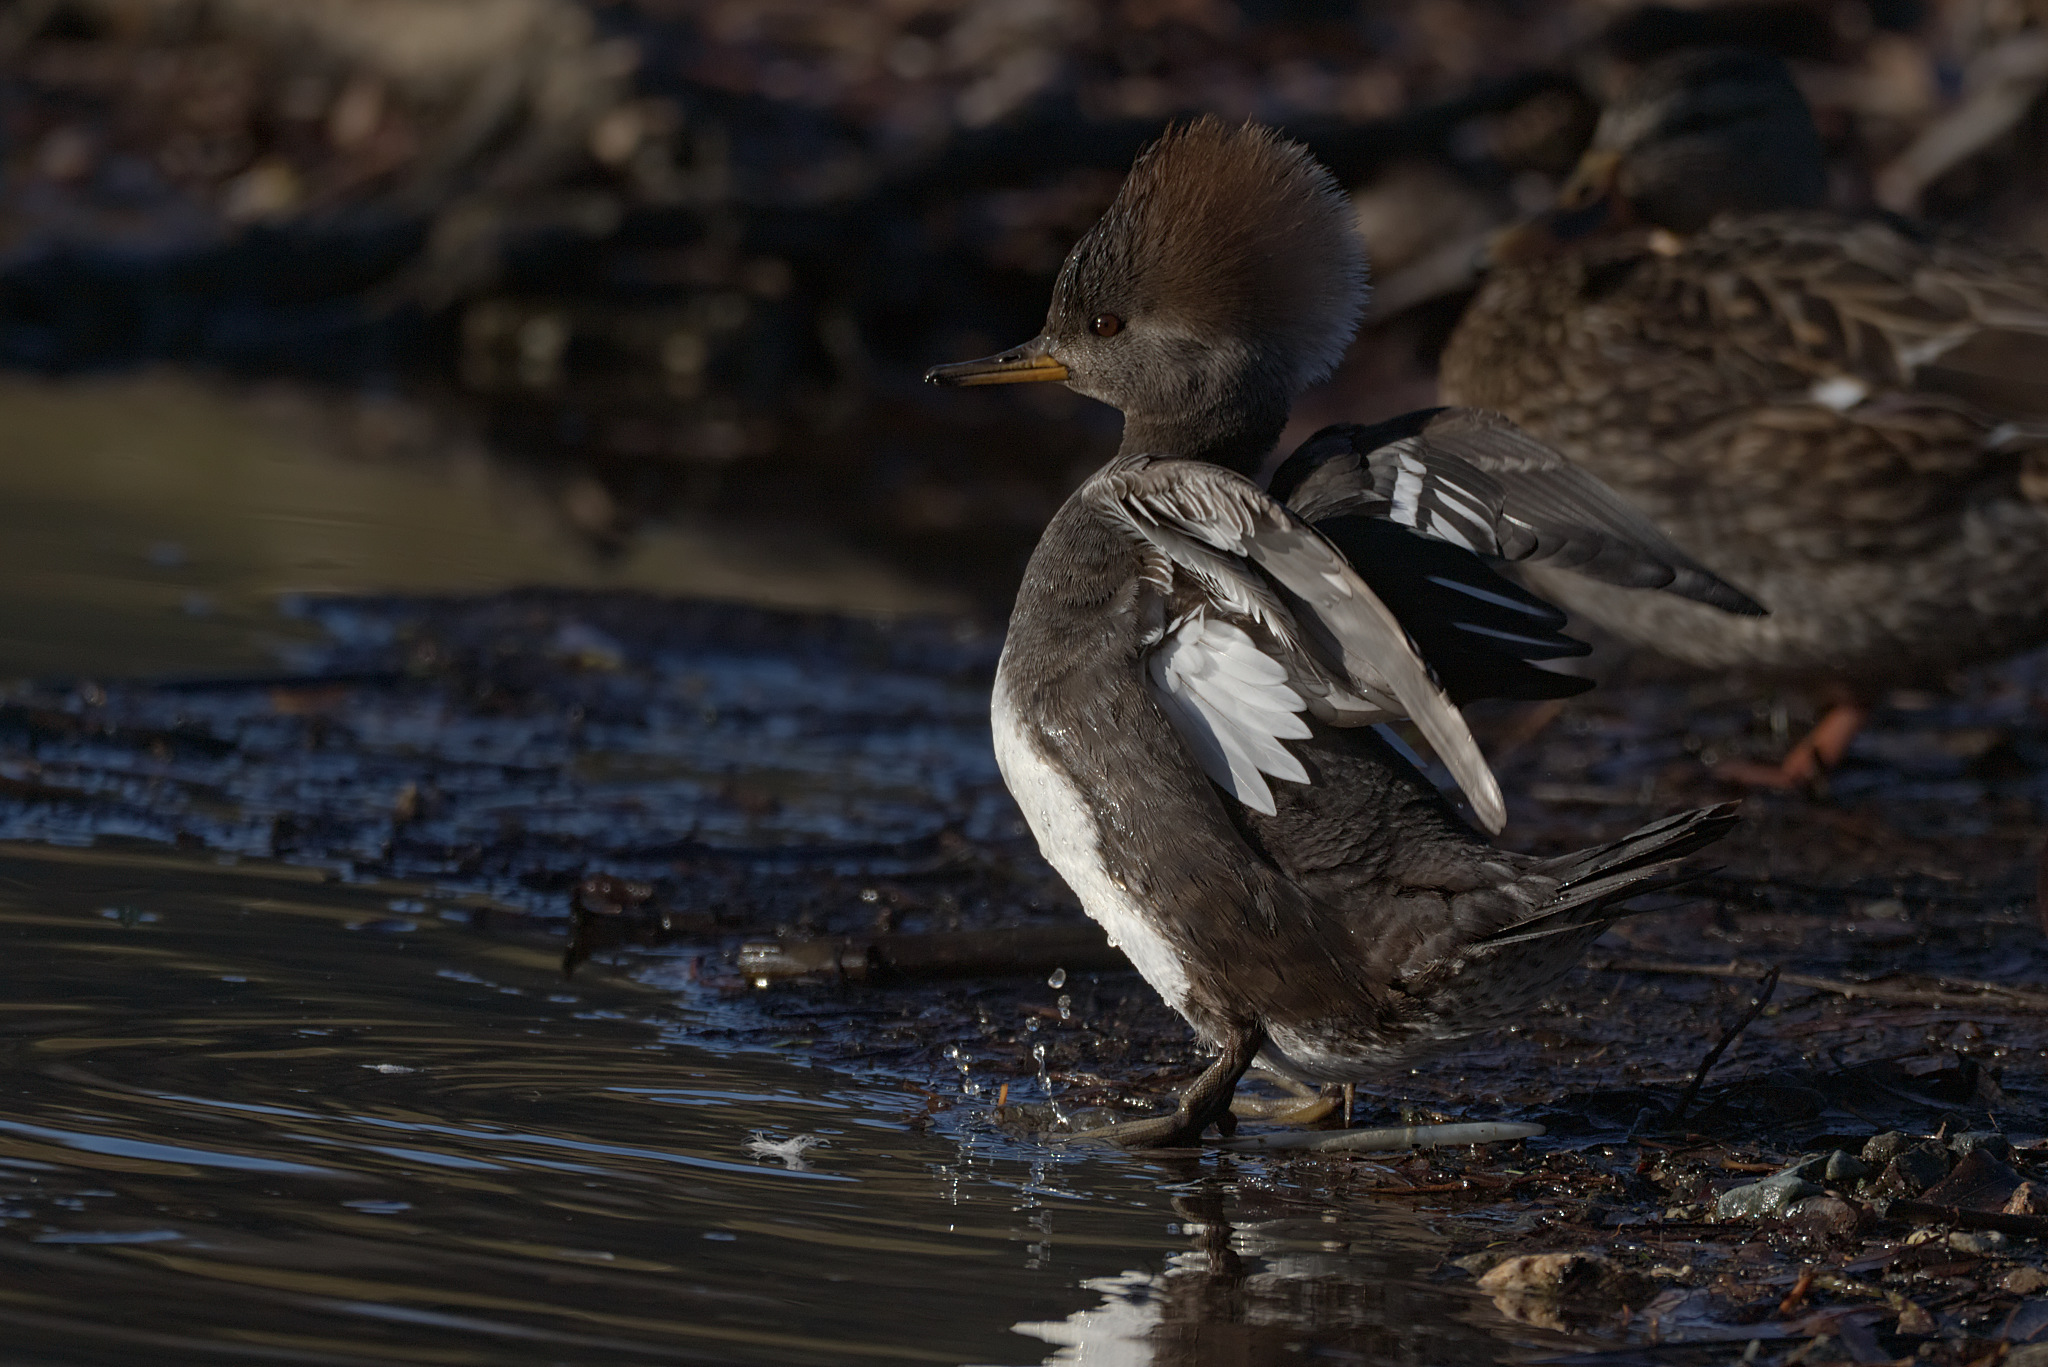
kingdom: Animalia
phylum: Chordata
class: Aves
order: Anseriformes
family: Anatidae
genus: Lophodytes
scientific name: Lophodytes cucullatus
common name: Hooded merganser
